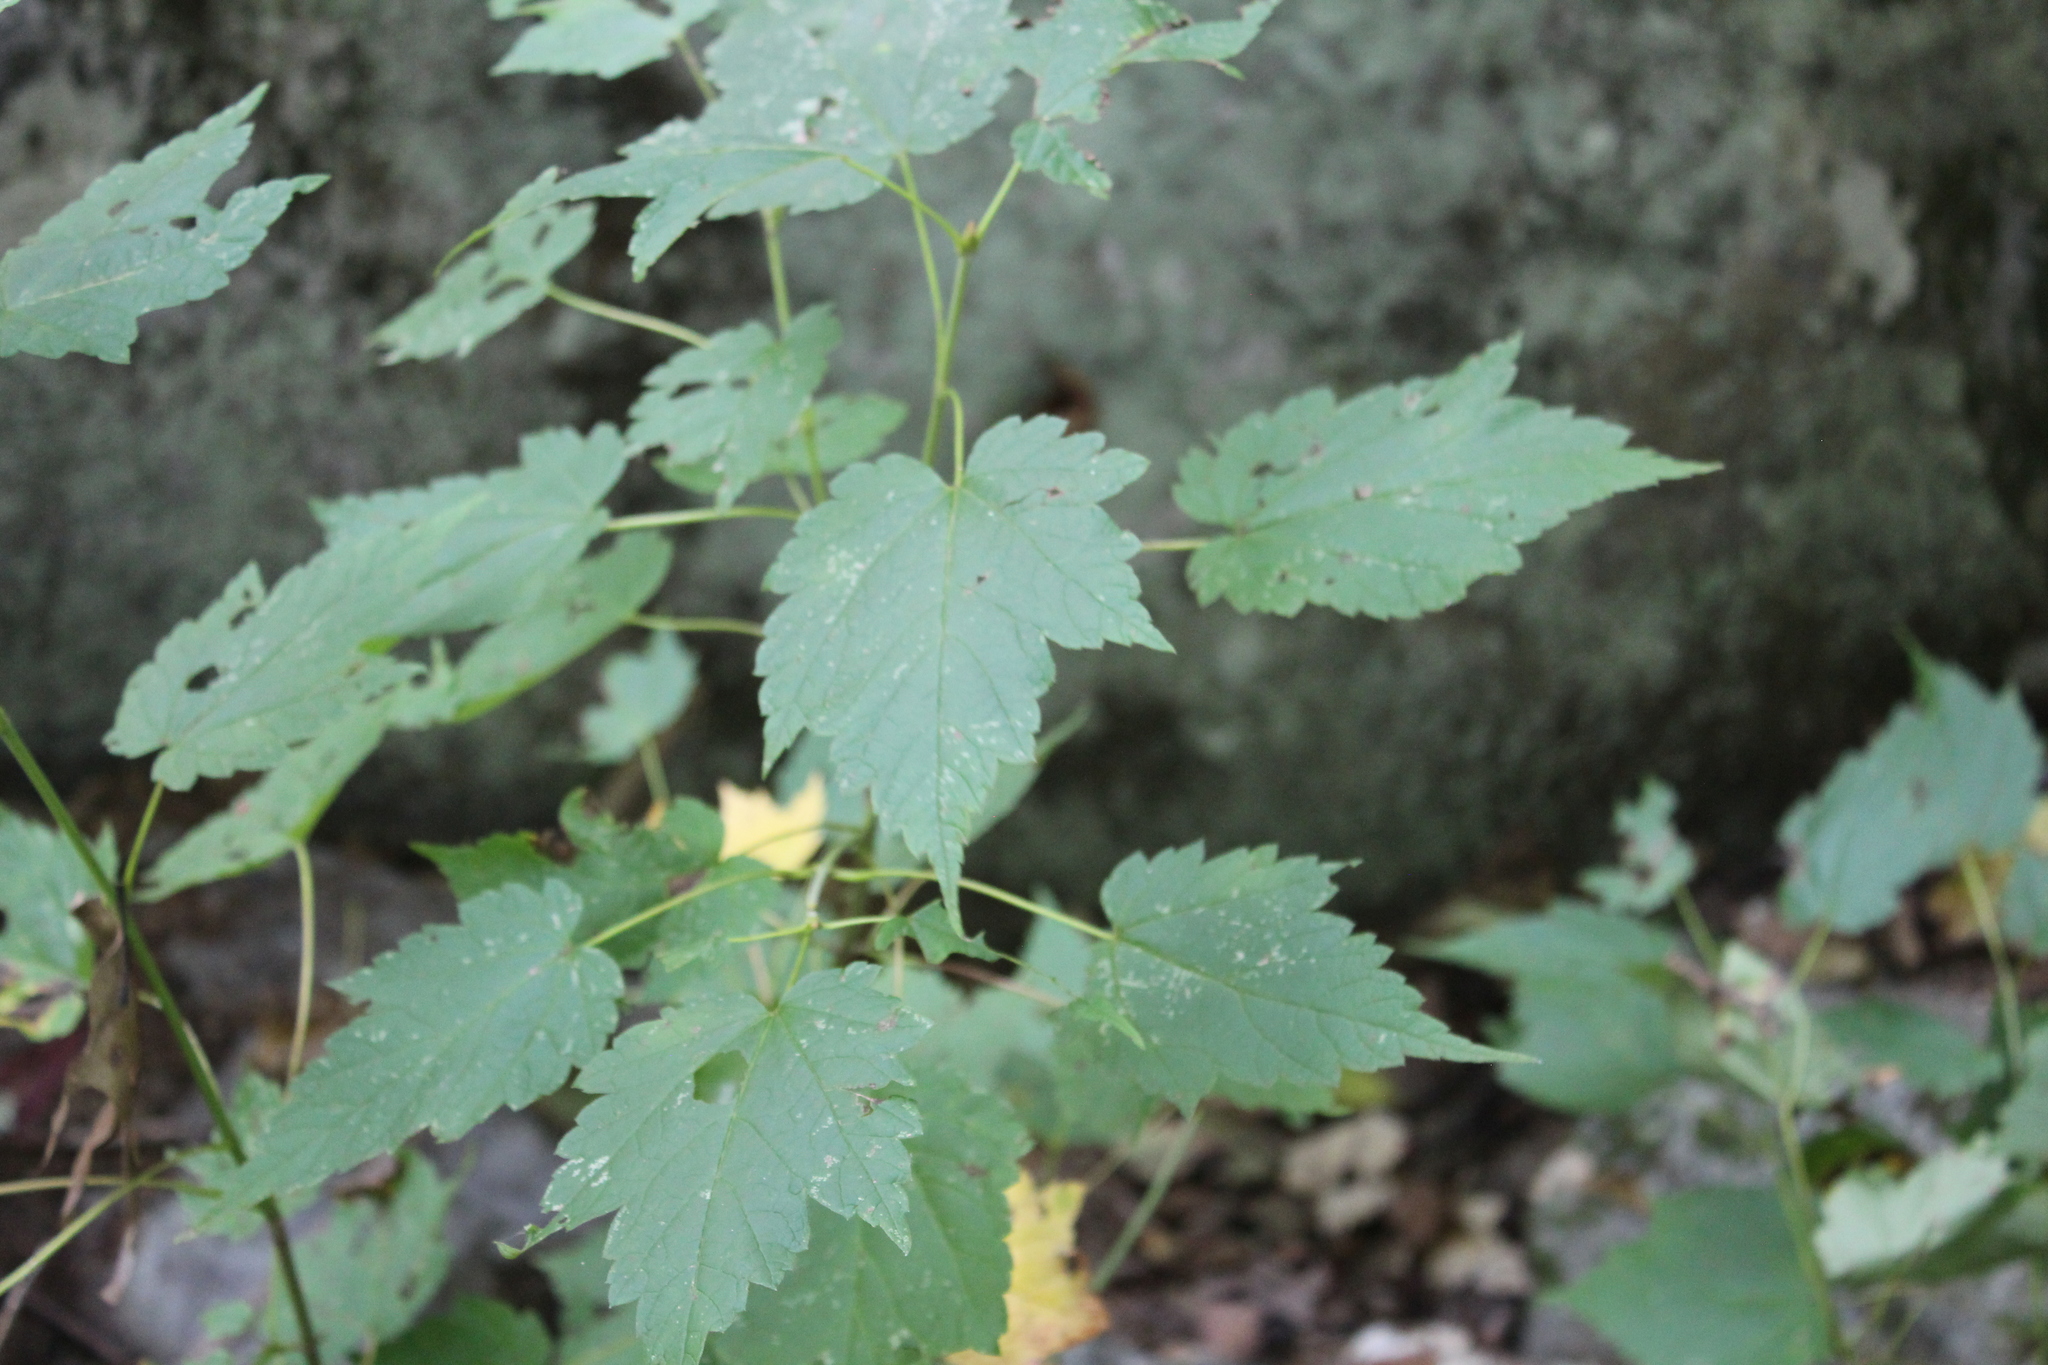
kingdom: Plantae
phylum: Tracheophyta
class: Magnoliopsida
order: Sapindales
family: Sapindaceae
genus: Acer
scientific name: Acer spicatum
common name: Mountain maple
